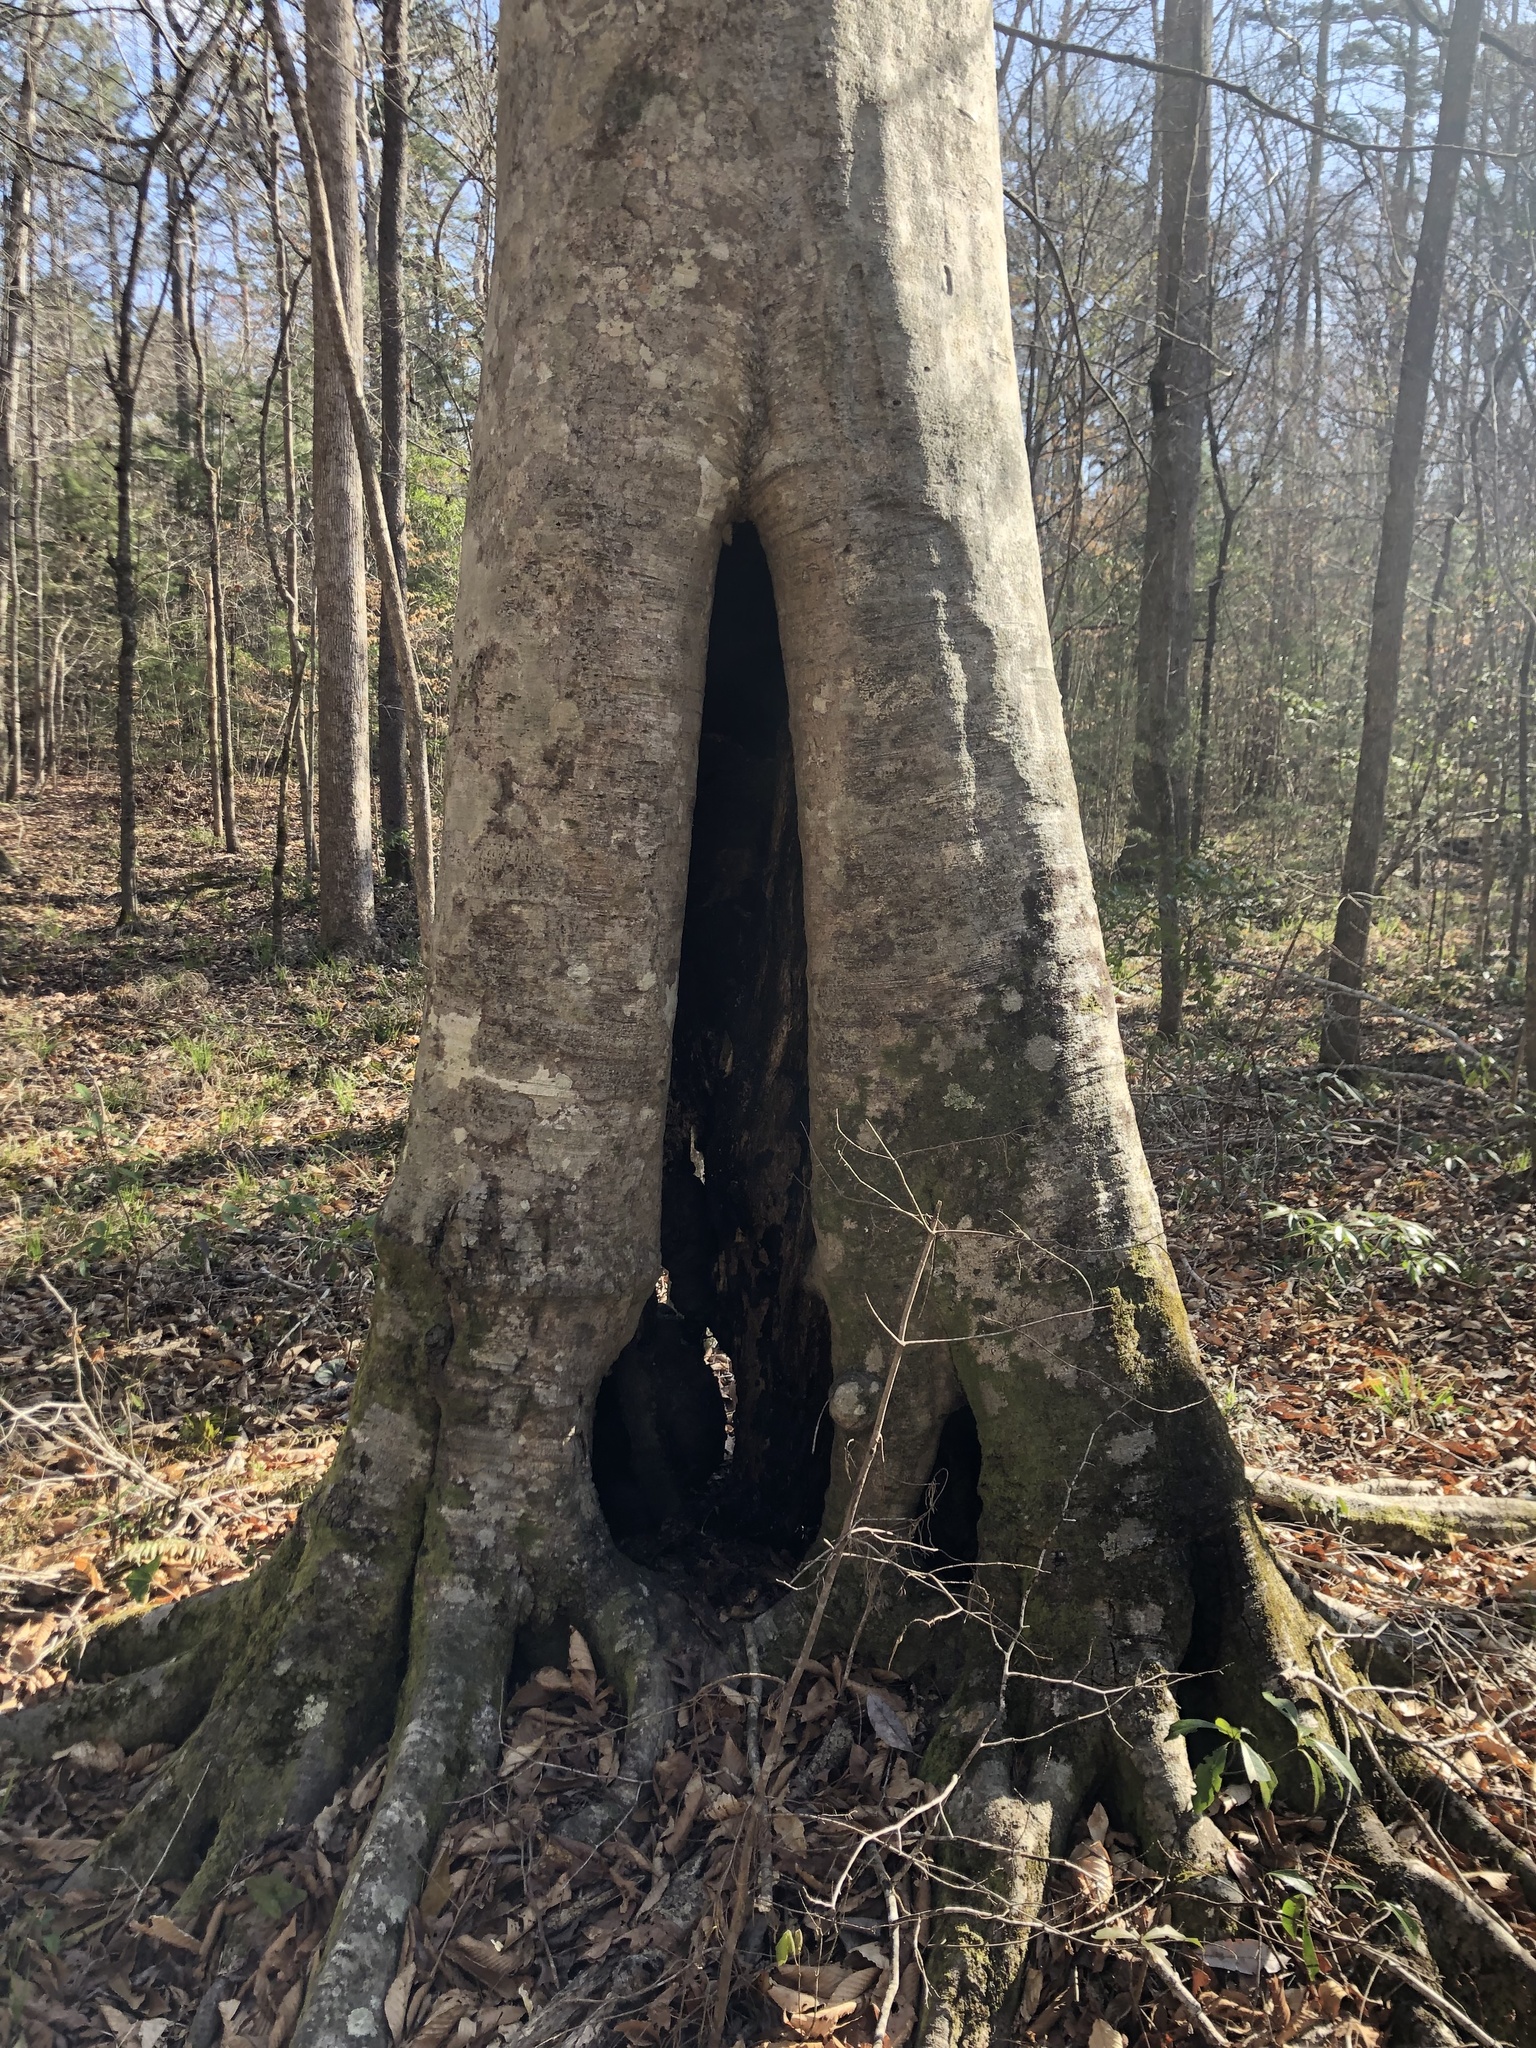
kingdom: Plantae
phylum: Tracheophyta
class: Magnoliopsida
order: Fagales
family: Fagaceae
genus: Fagus
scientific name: Fagus grandifolia
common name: American beech
